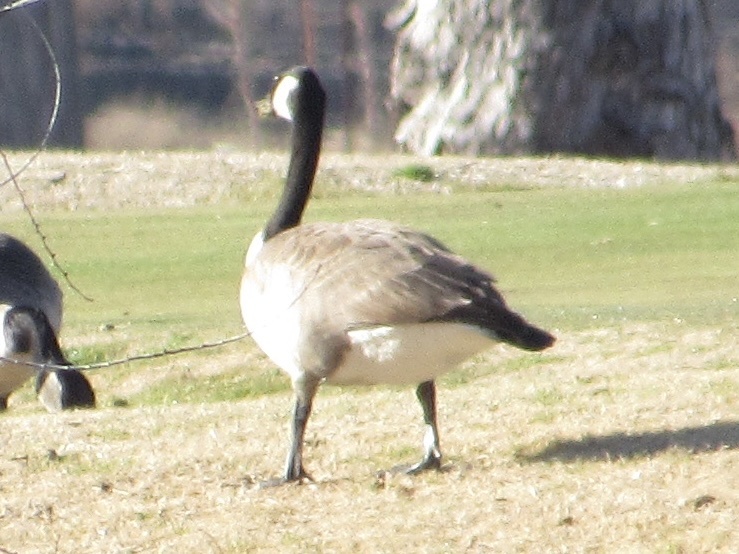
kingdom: Animalia
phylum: Chordata
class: Aves
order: Anseriformes
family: Anatidae
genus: Branta
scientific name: Branta canadensis
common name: Canada goose
